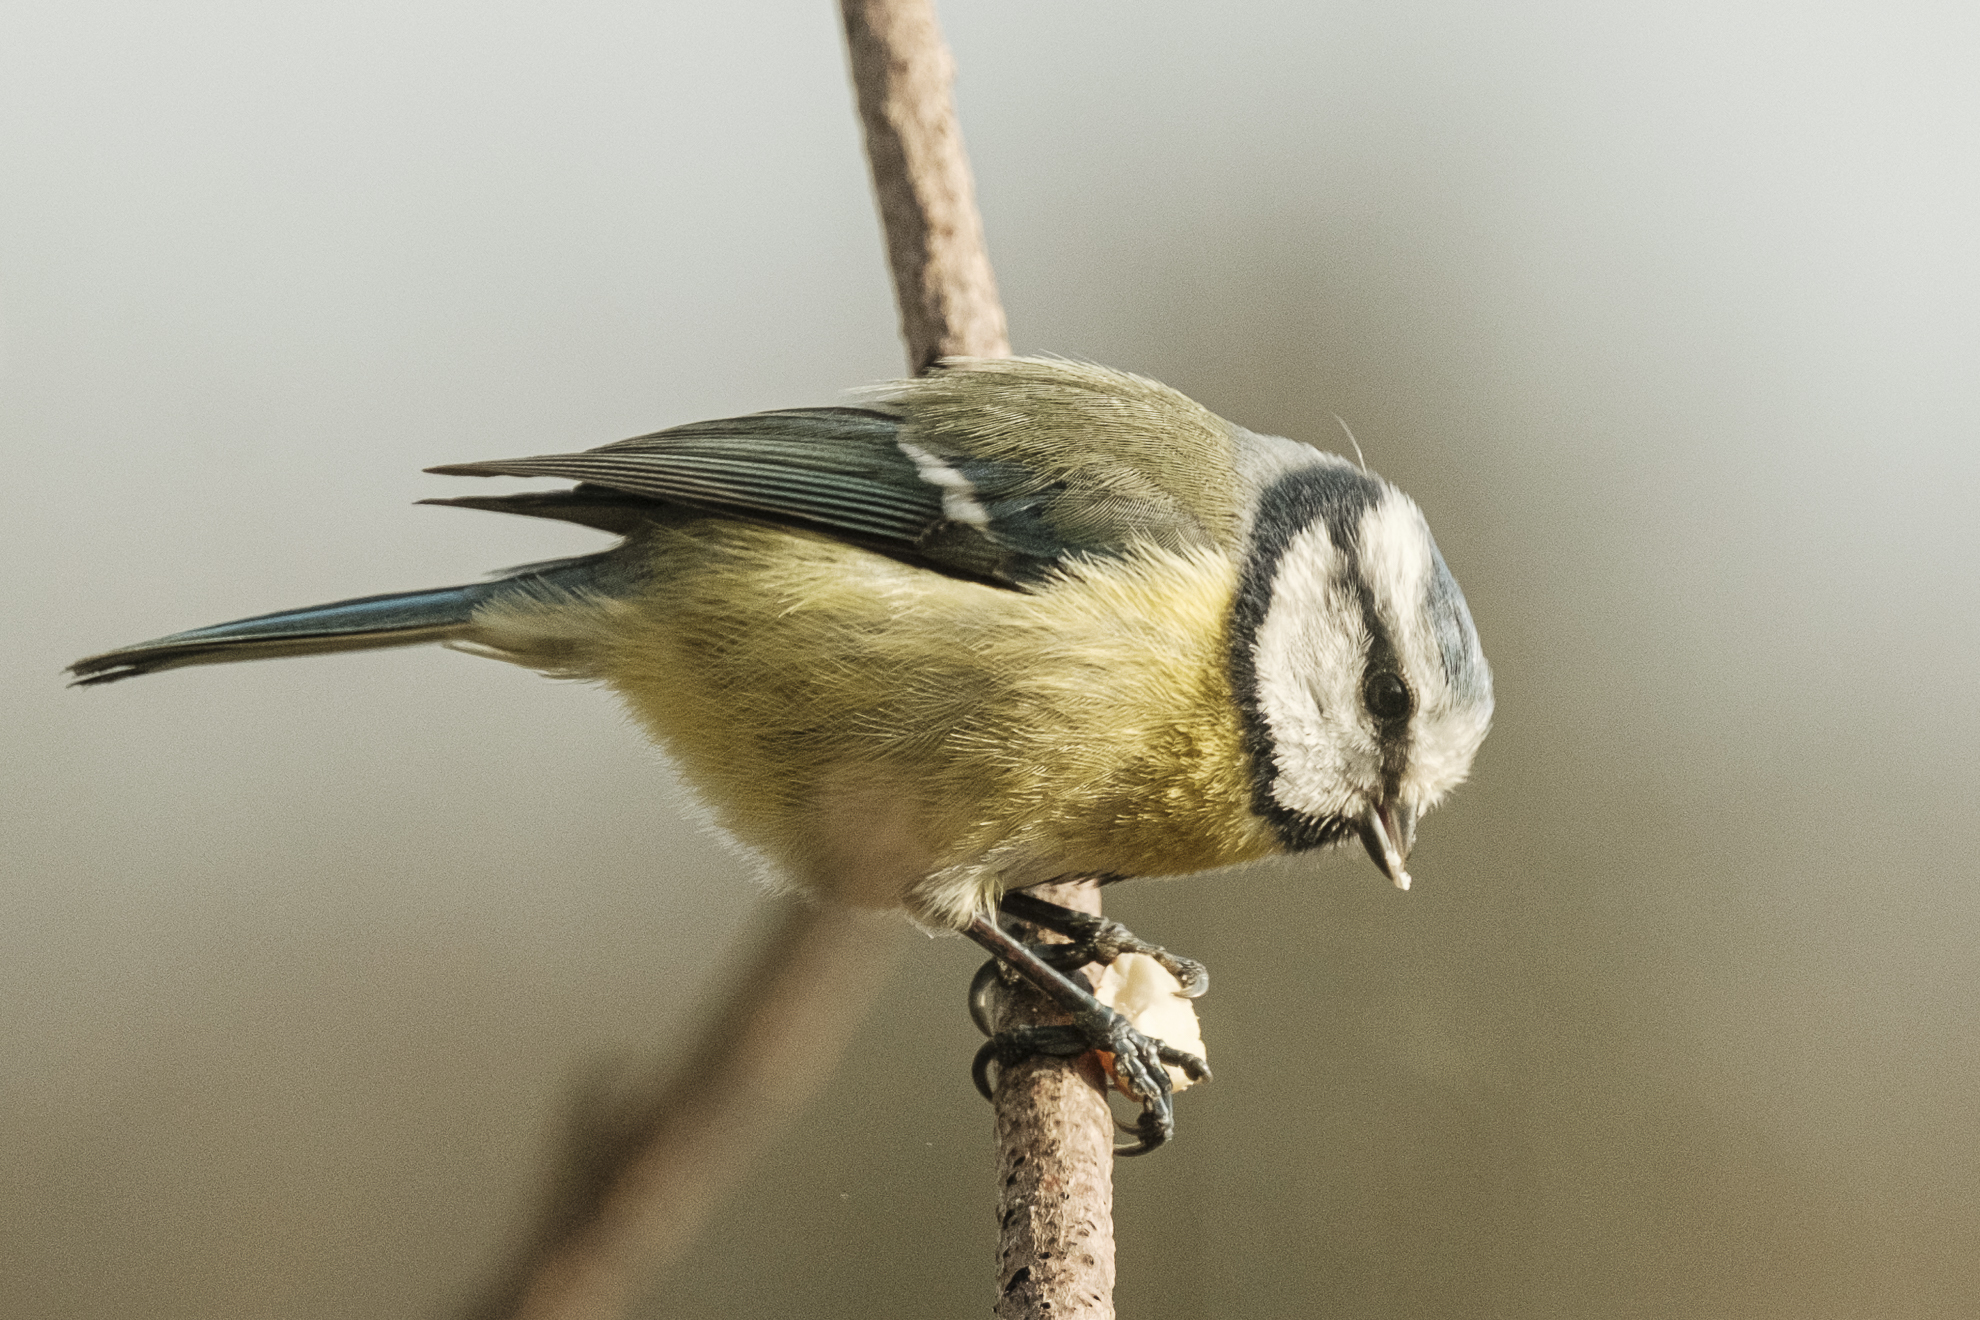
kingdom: Animalia
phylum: Chordata
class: Aves
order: Passeriformes
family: Paridae
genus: Cyanistes
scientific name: Cyanistes caeruleus
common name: Eurasian blue tit
